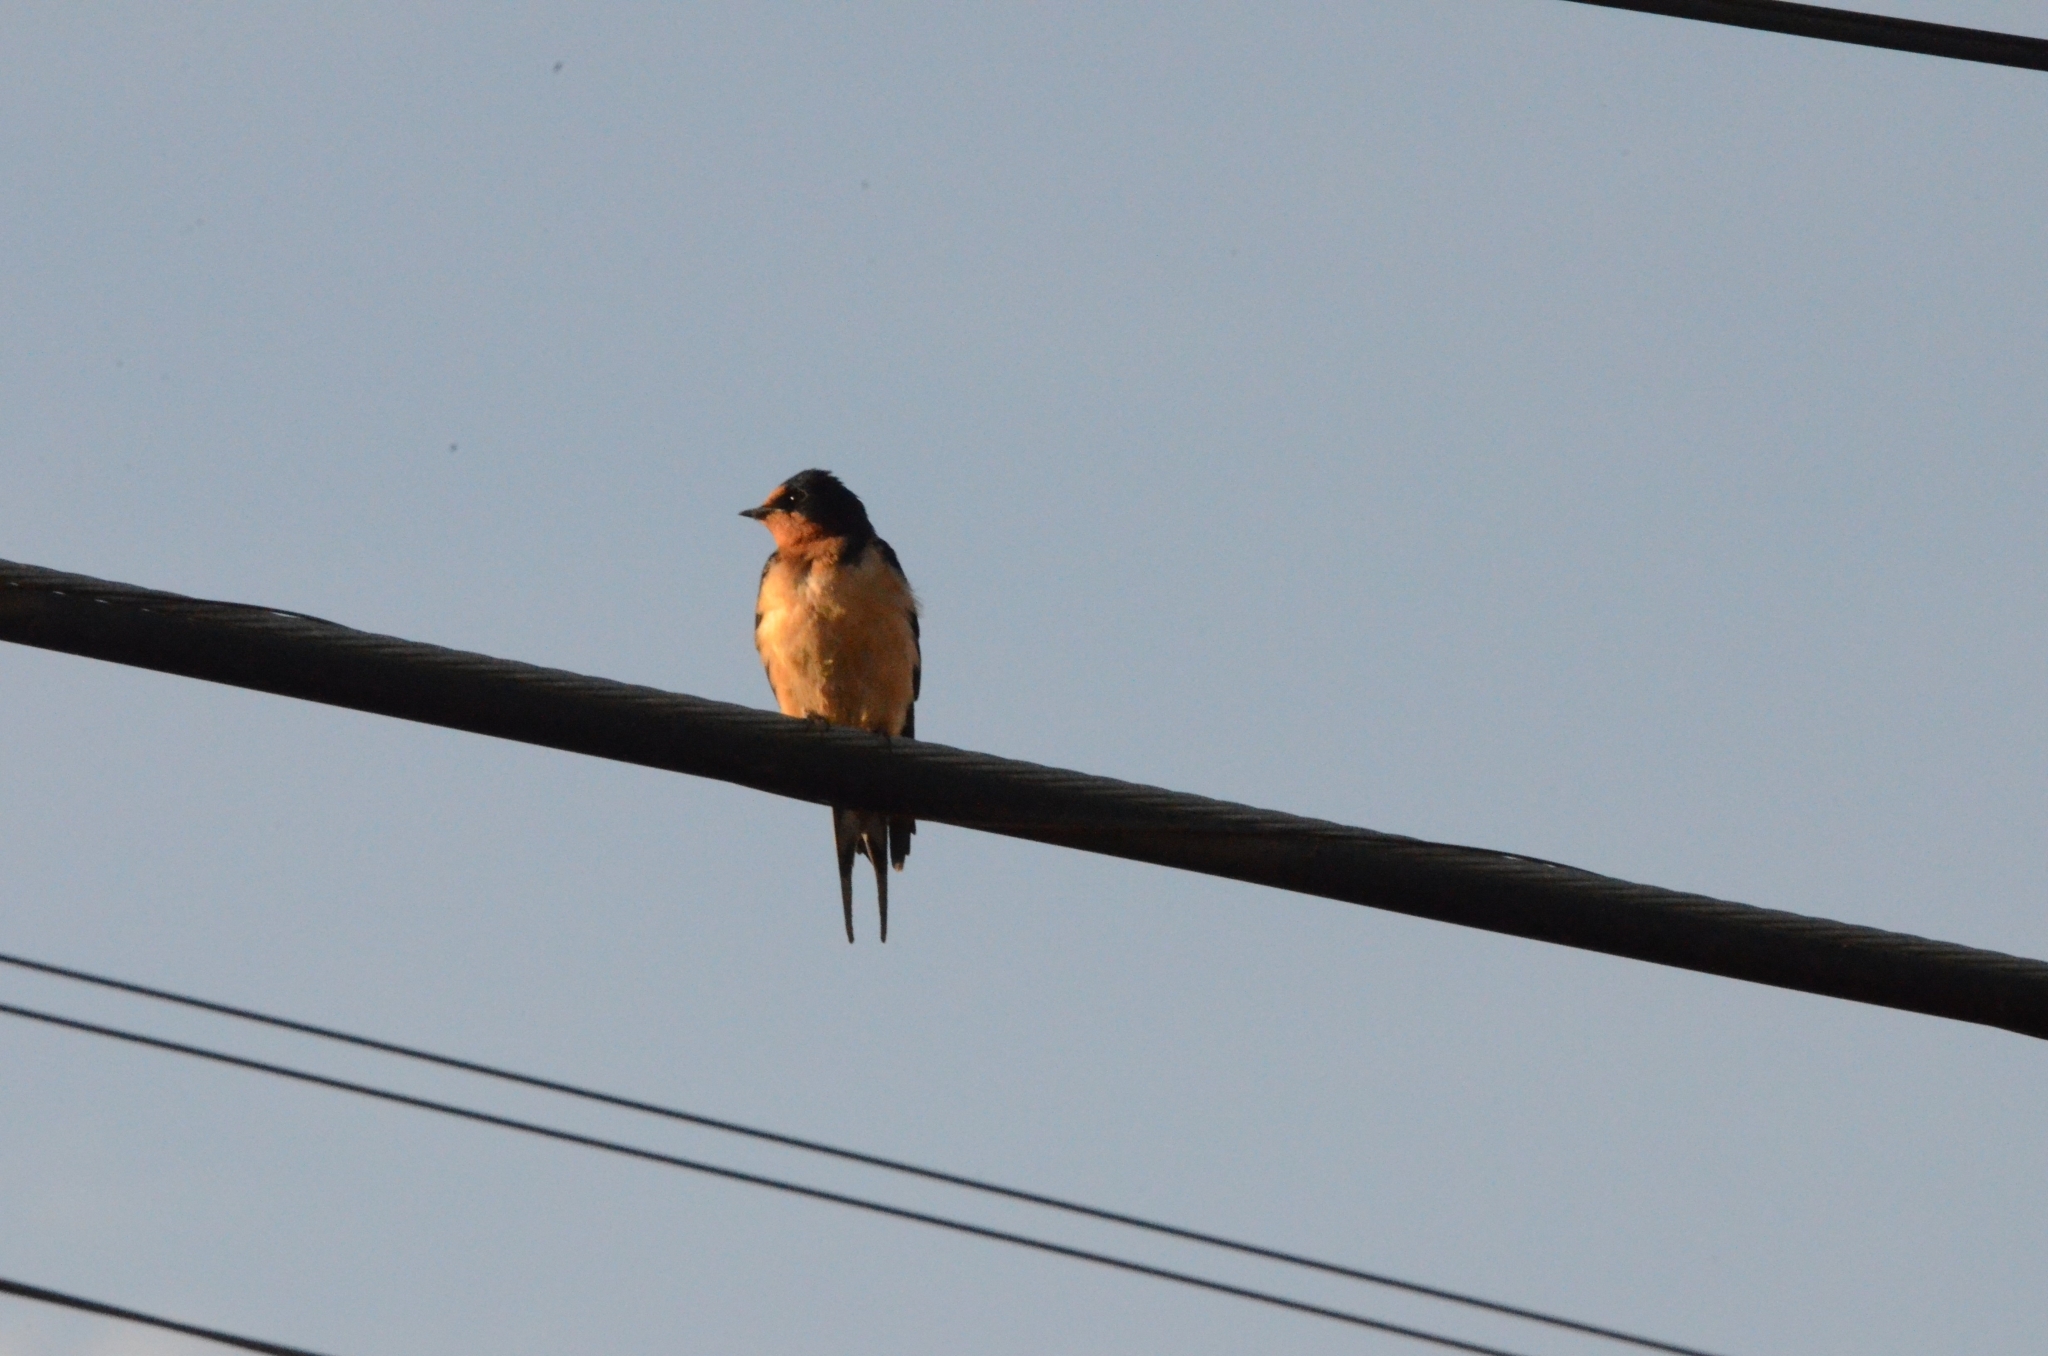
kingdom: Animalia
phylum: Chordata
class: Aves
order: Passeriformes
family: Hirundinidae
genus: Hirundo
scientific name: Hirundo rustica
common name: Barn swallow
